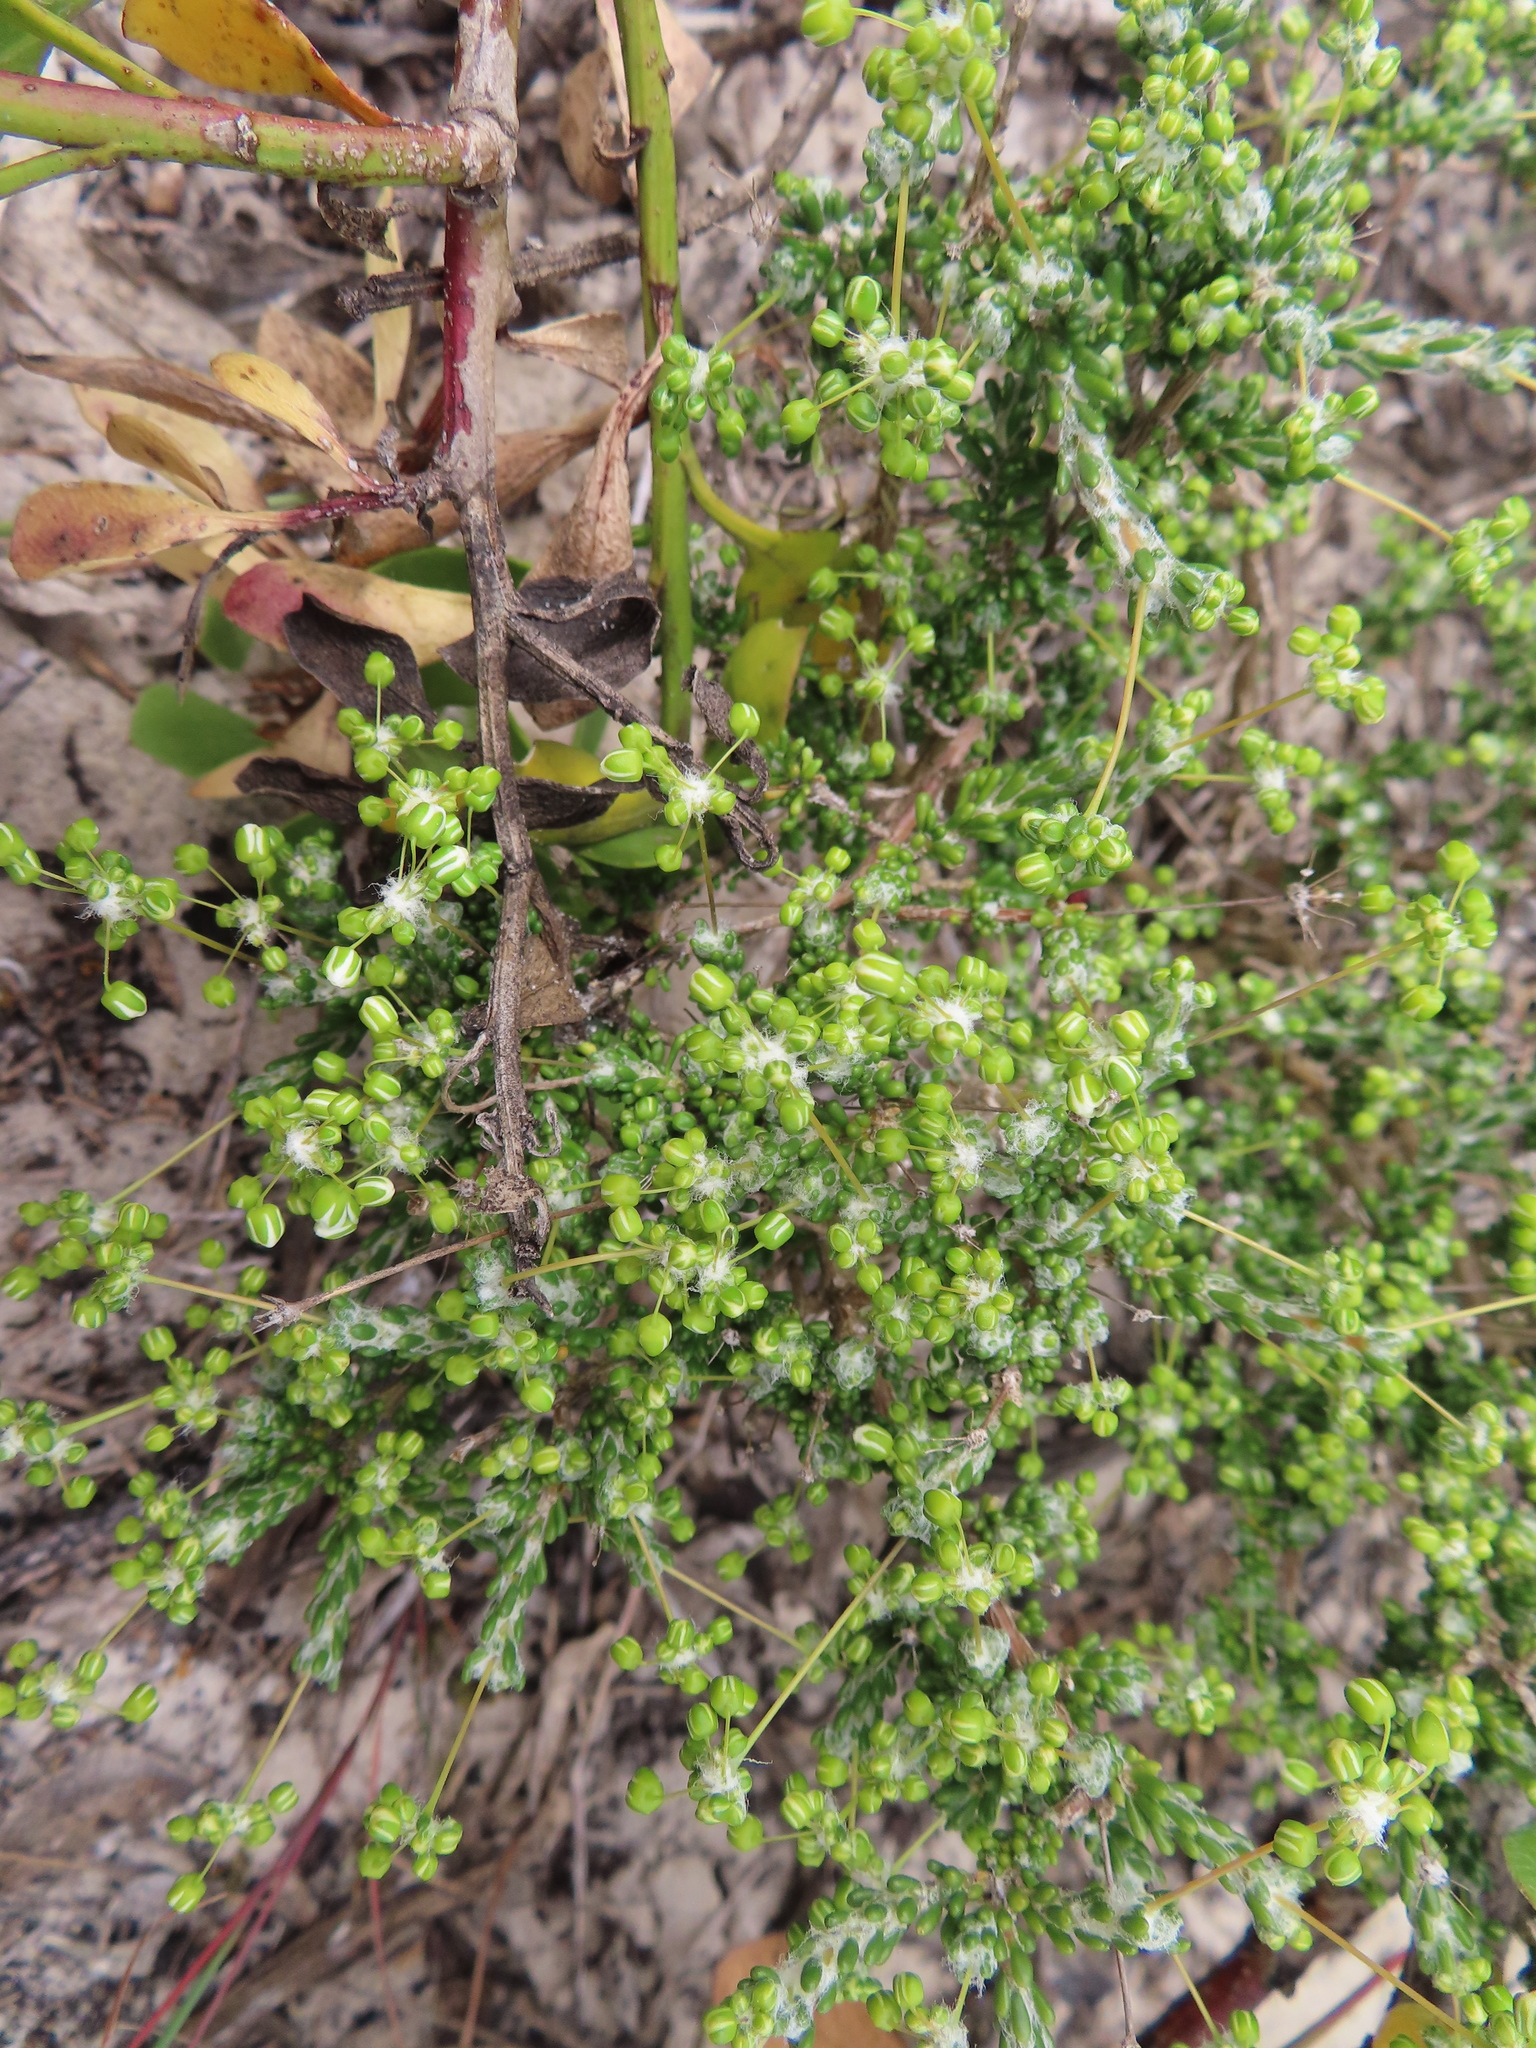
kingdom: Plantae
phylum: Tracheophyta
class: Magnoliopsida
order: Caryophyllales
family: Molluginaceae
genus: Pharnaceum
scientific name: Pharnaceum microphyllum
